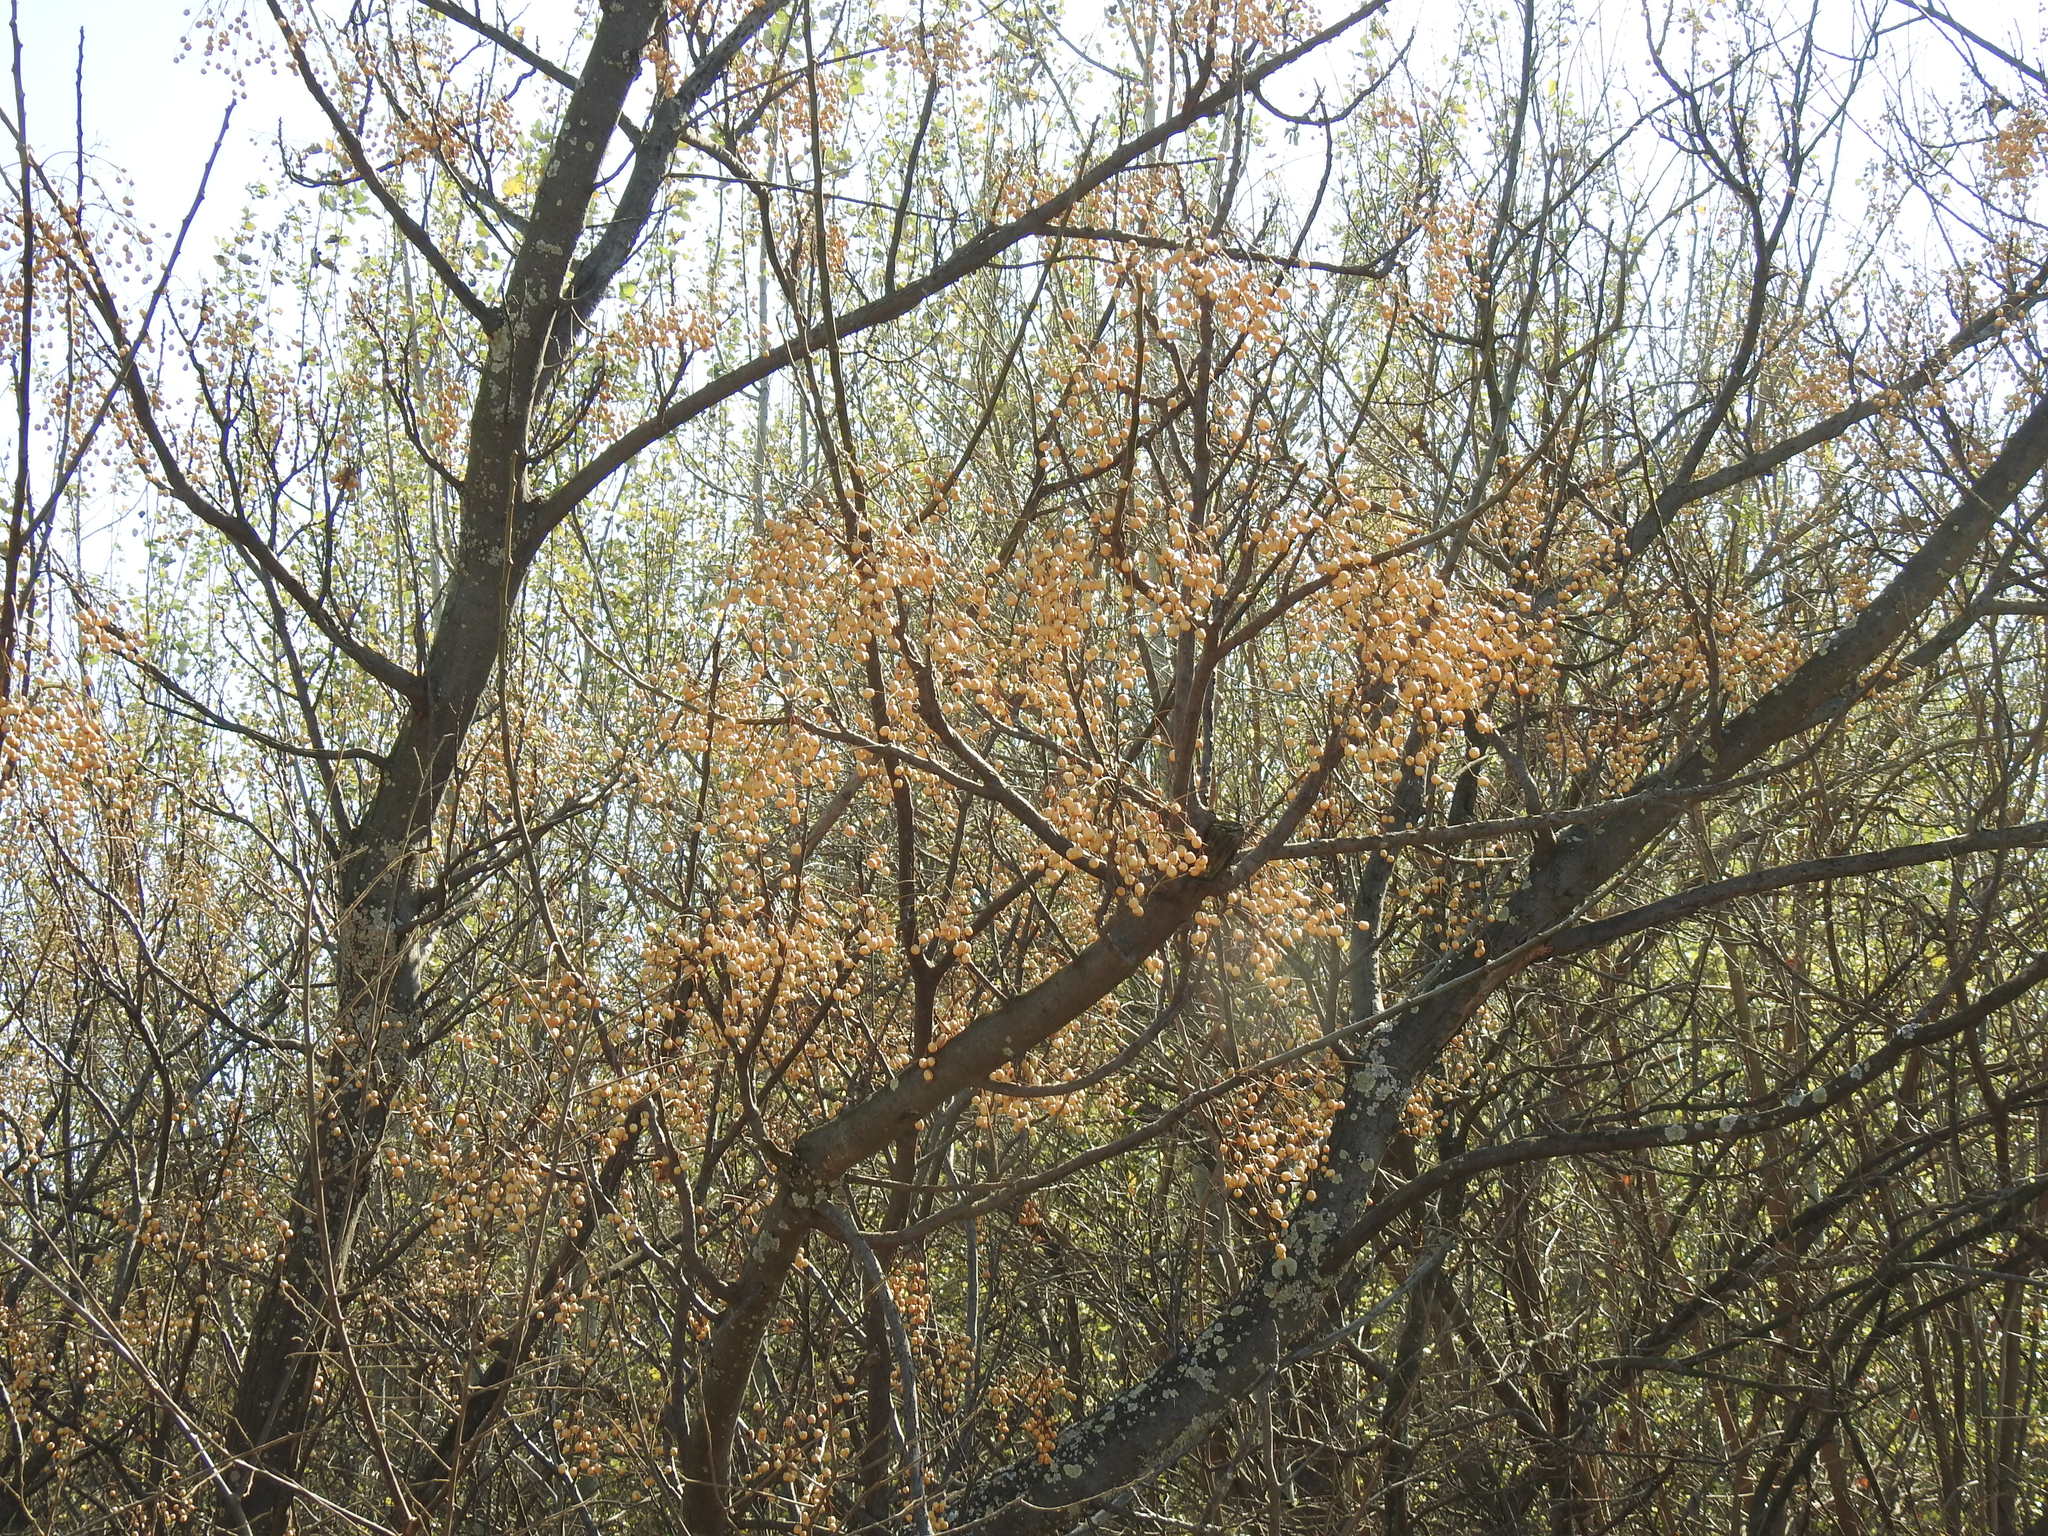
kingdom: Plantae
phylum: Tracheophyta
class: Magnoliopsida
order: Sapindales
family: Meliaceae
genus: Melia
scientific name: Melia azedarach
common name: Chinaberrytree
